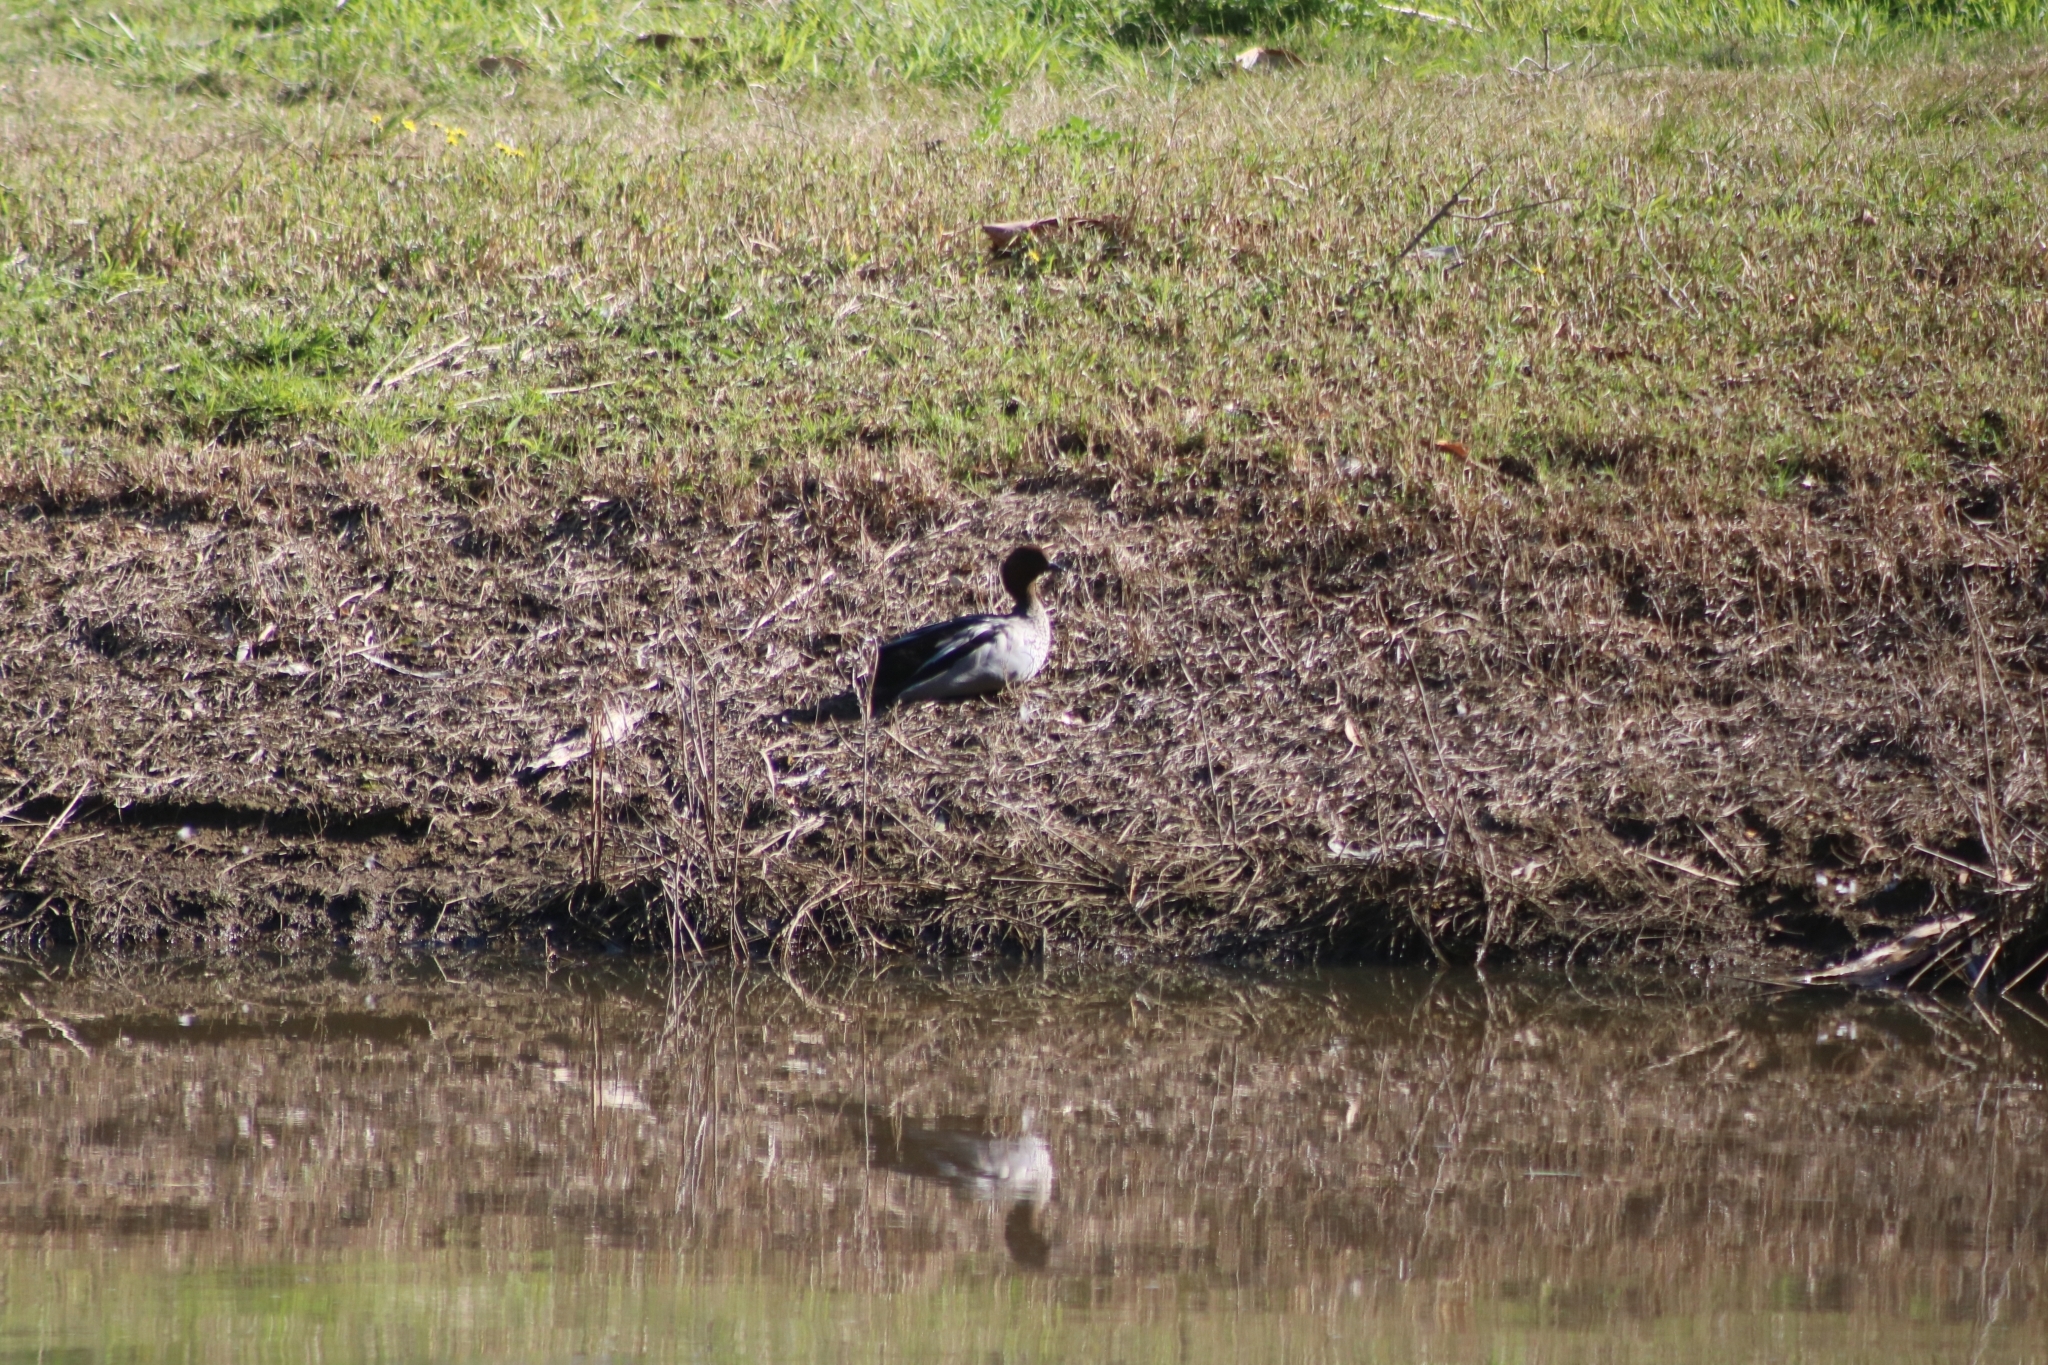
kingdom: Animalia
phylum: Chordata
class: Aves
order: Anseriformes
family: Anatidae
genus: Chenonetta
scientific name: Chenonetta jubata
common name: Maned duck
